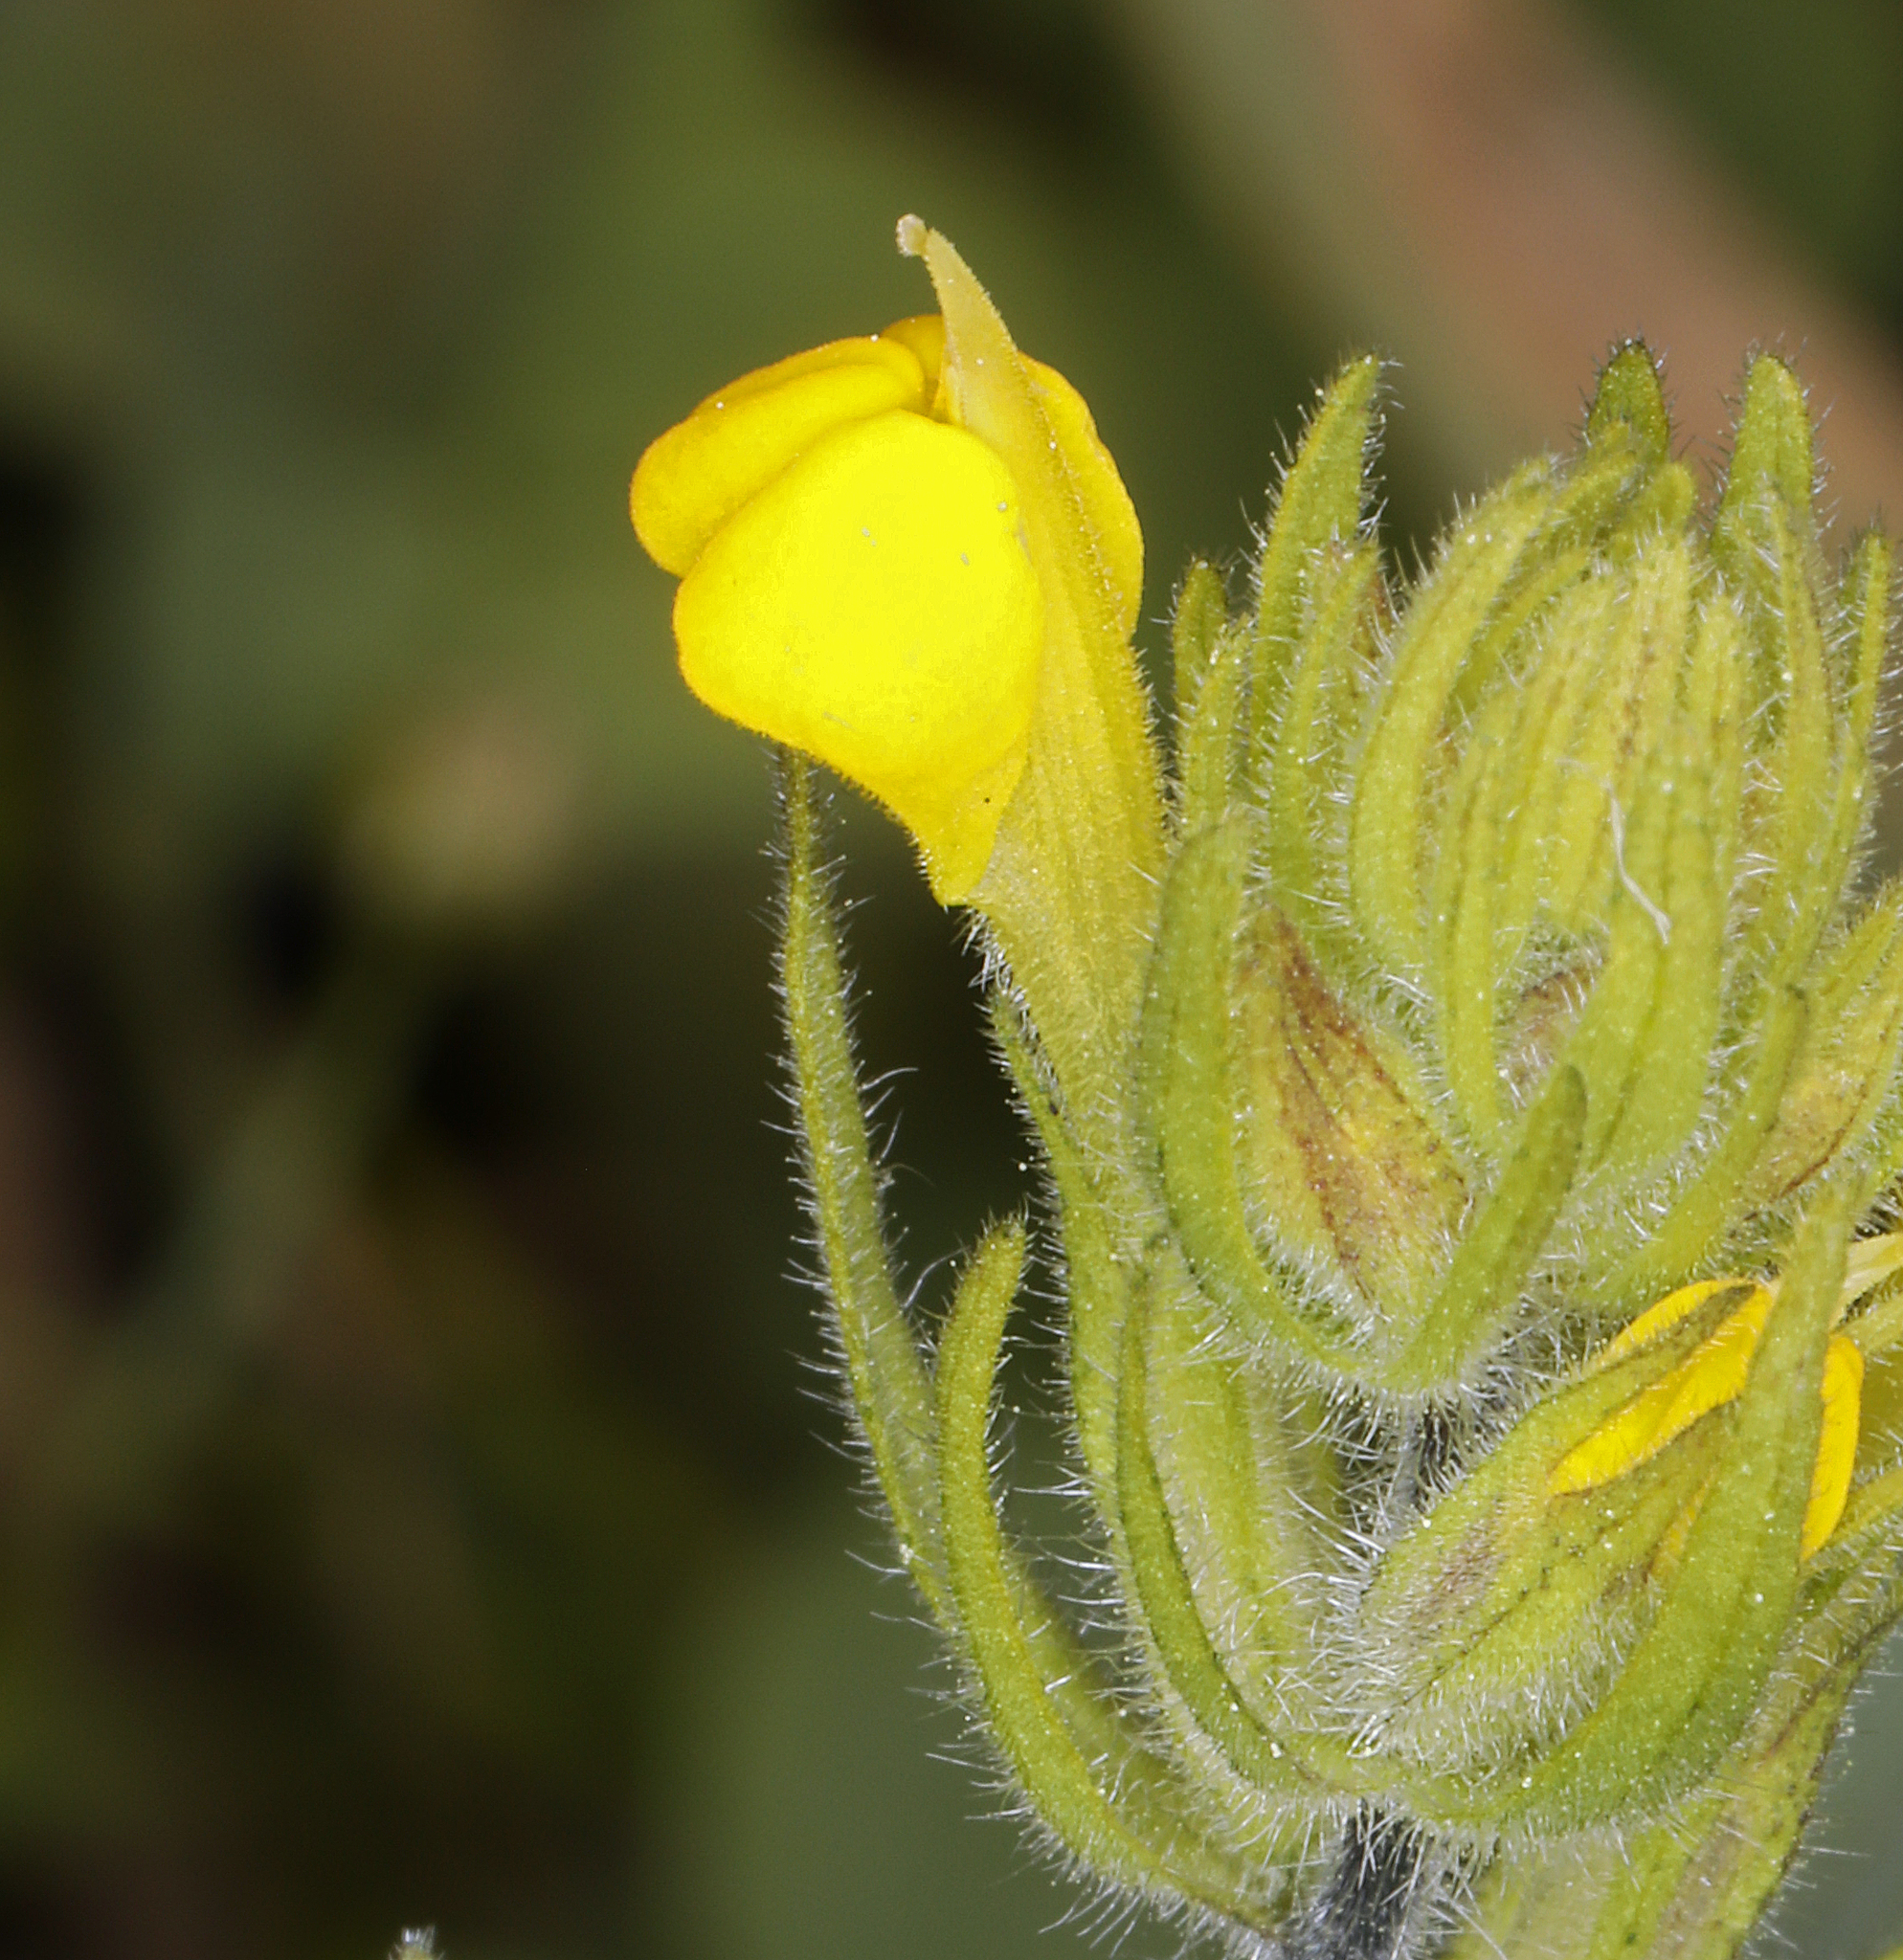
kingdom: Plantae
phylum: Tracheophyta
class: Magnoliopsida
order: Lamiales
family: Orobanchaceae
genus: Castilleja
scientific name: Castilleja lacera
